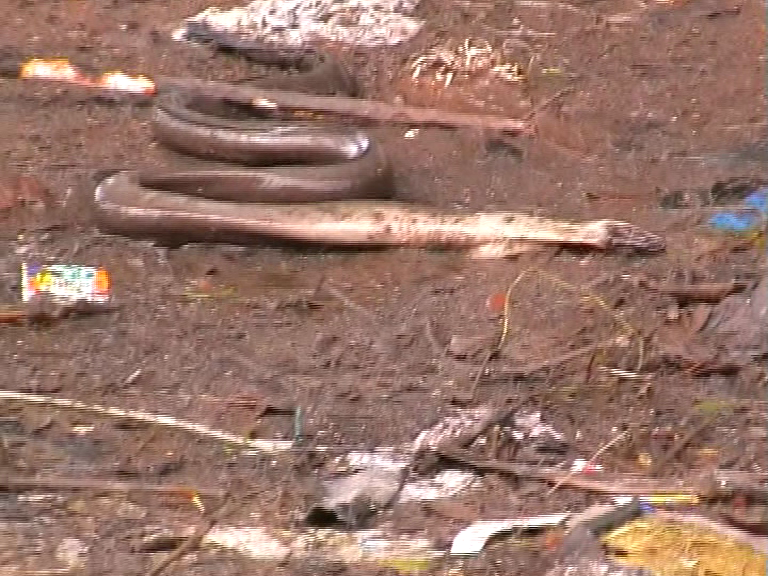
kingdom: Animalia
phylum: Chordata
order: Anguilliformes
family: Muraenidae
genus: Strophidon
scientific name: Strophidon sathete
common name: Giant slender moray
